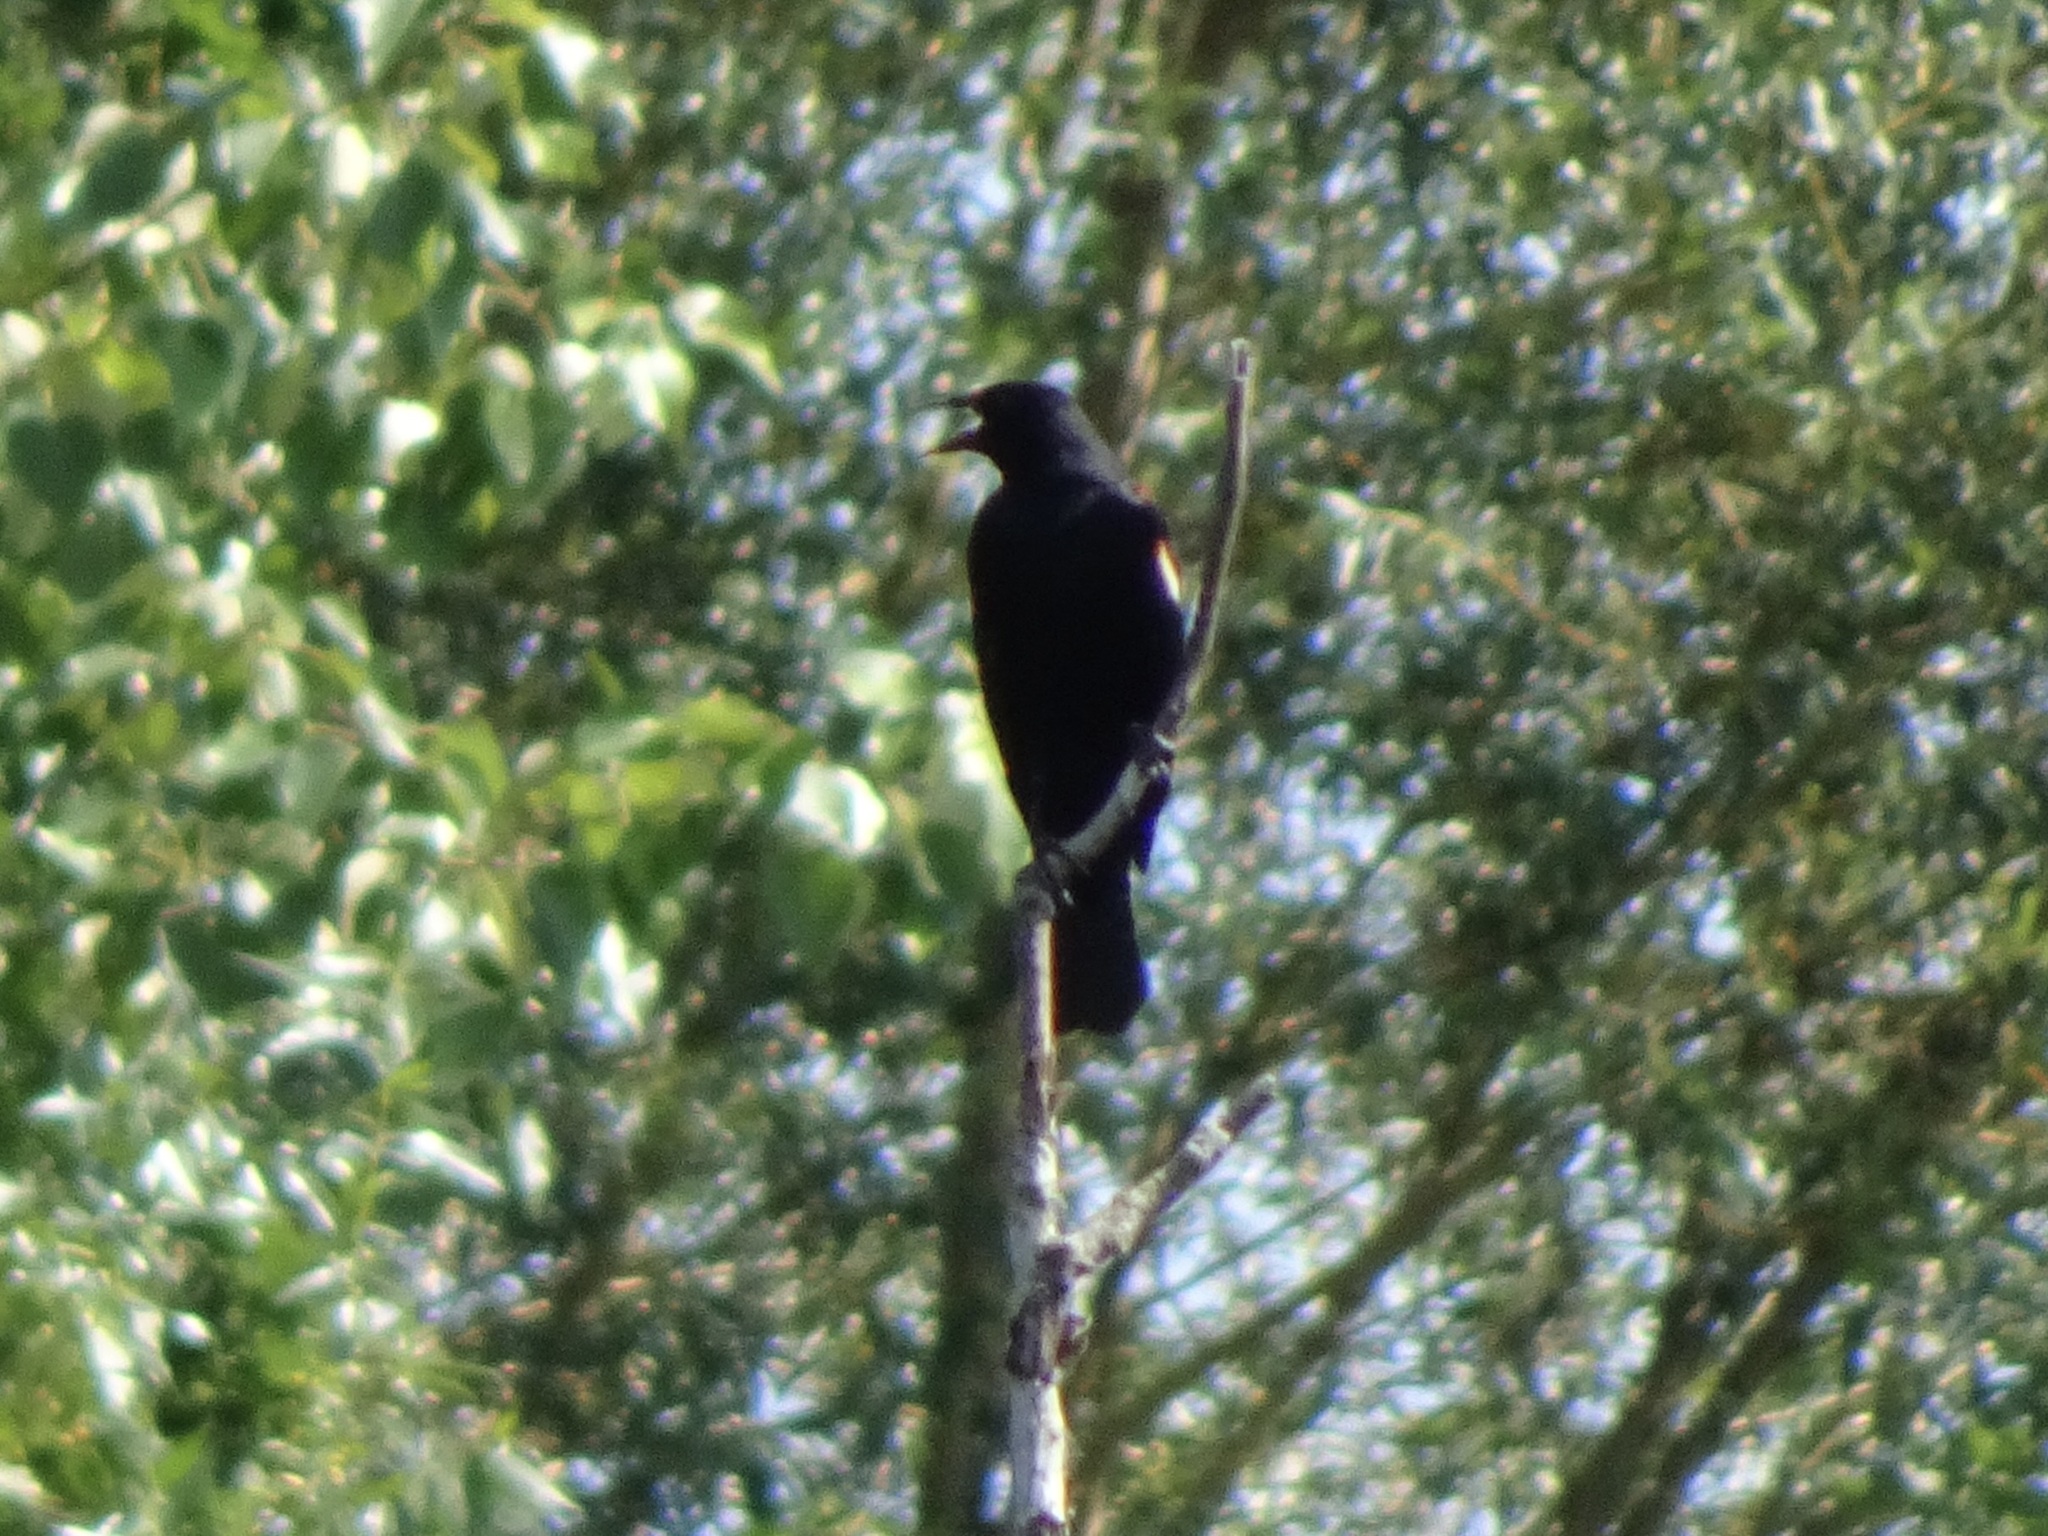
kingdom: Animalia
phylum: Chordata
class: Aves
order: Passeriformes
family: Icteridae
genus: Agelaius
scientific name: Agelaius phoeniceus
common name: Red-winged blackbird
